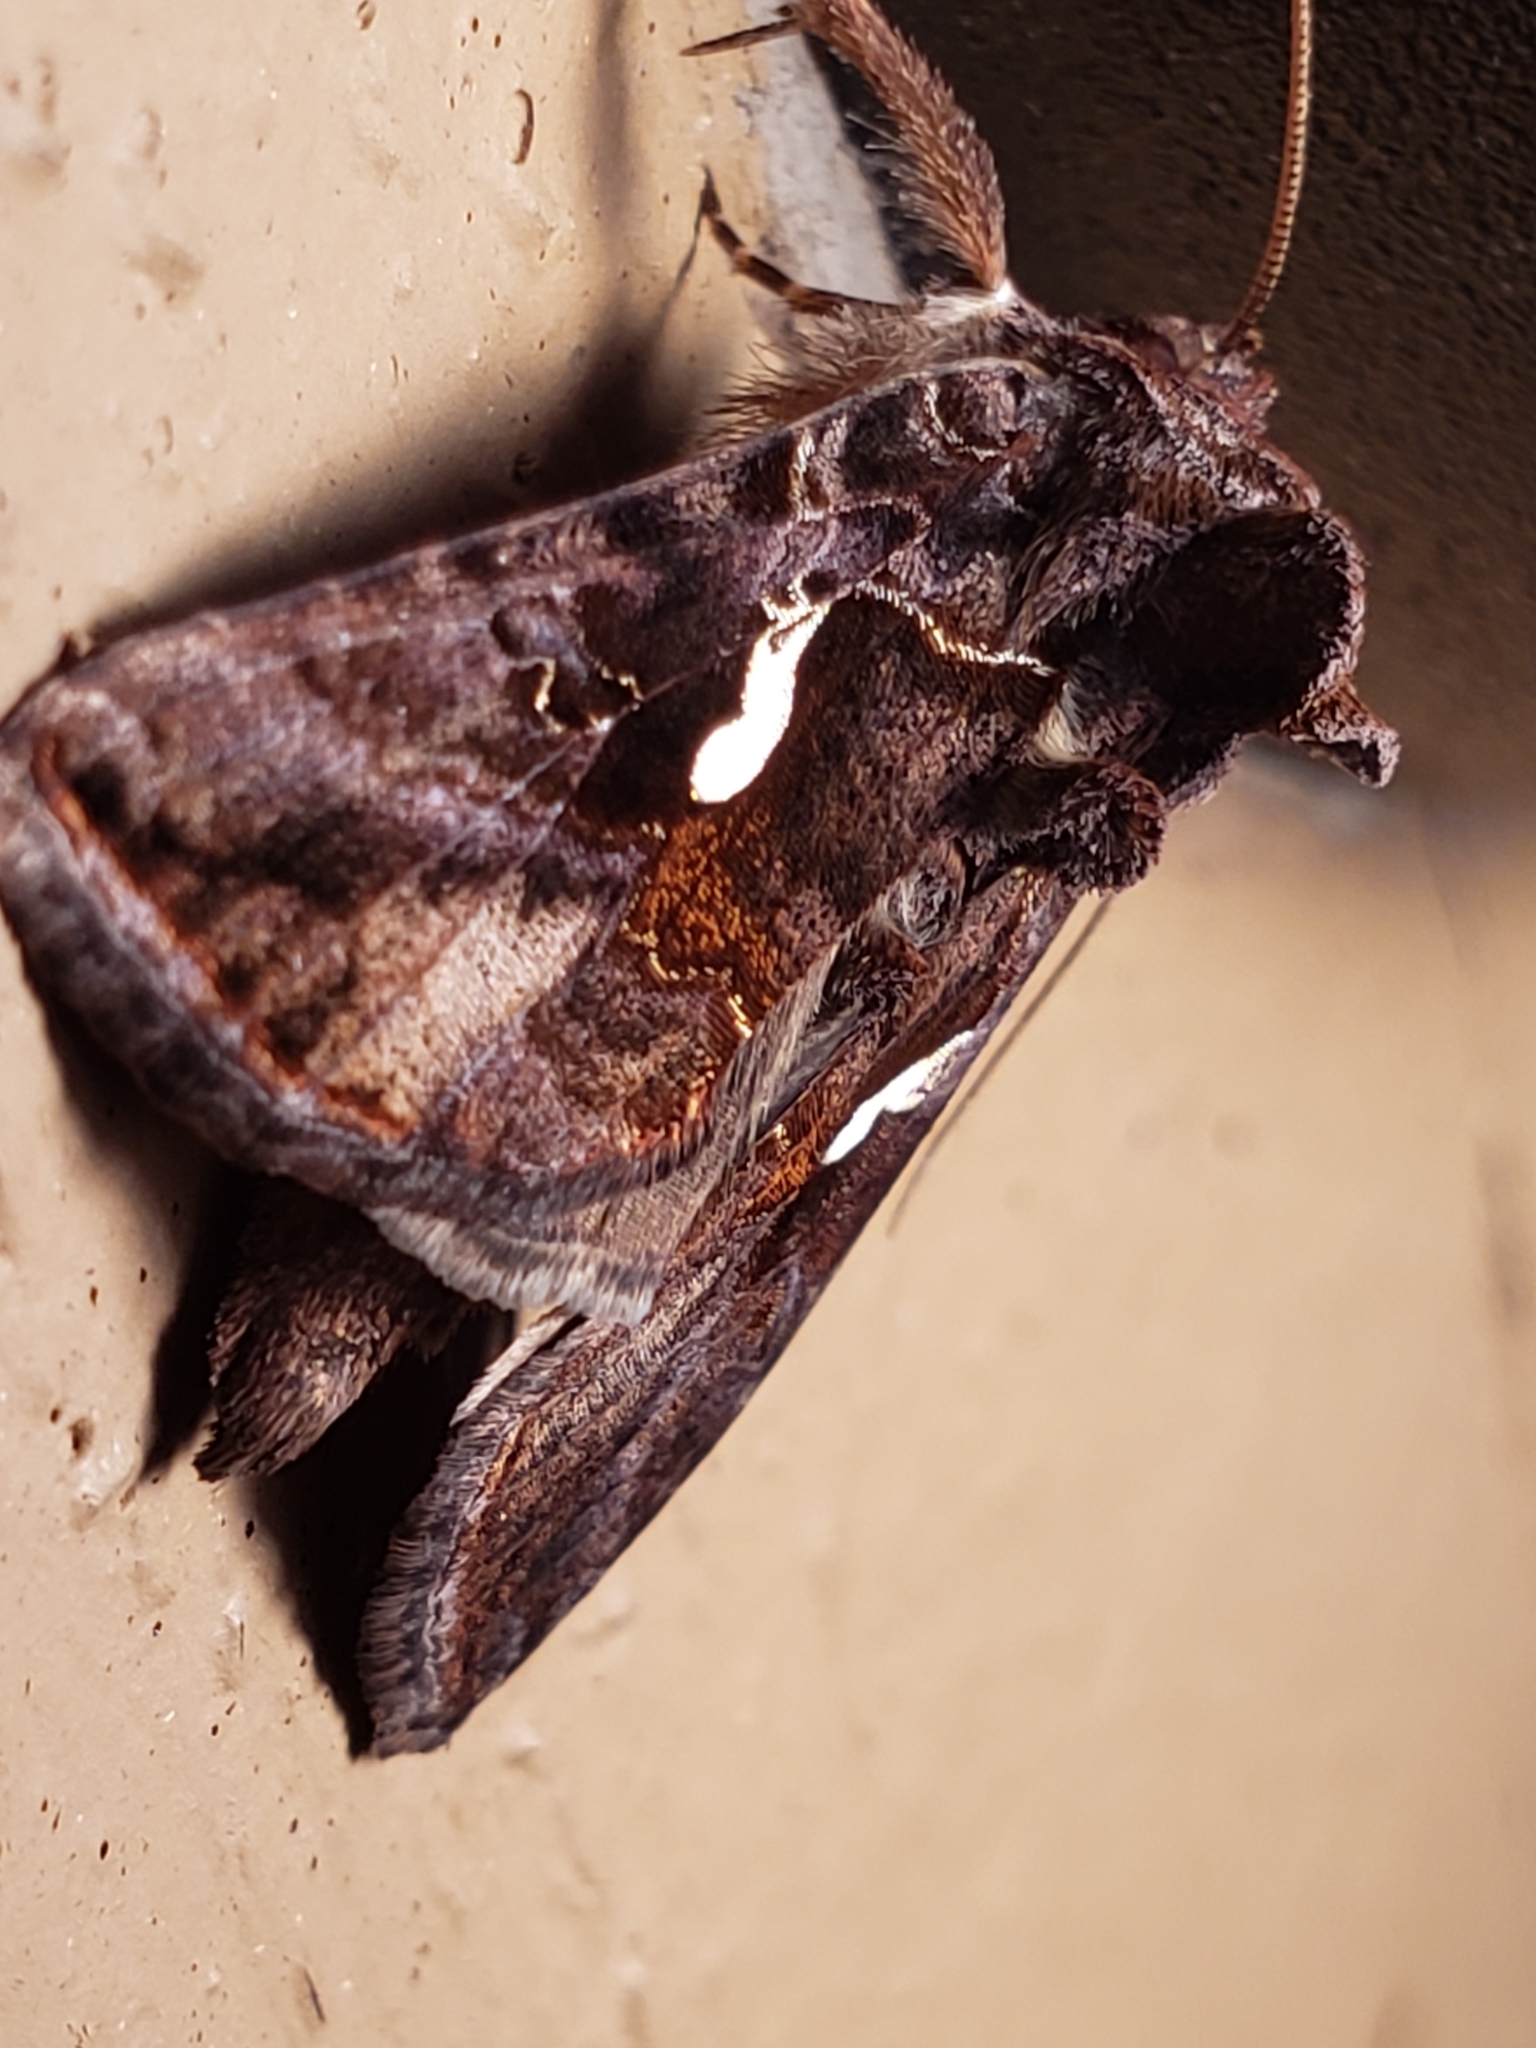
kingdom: Animalia
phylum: Arthropoda
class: Insecta
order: Lepidoptera
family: Noctuidae
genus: Autographa
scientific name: Autographa precationis
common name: Common looper moth
